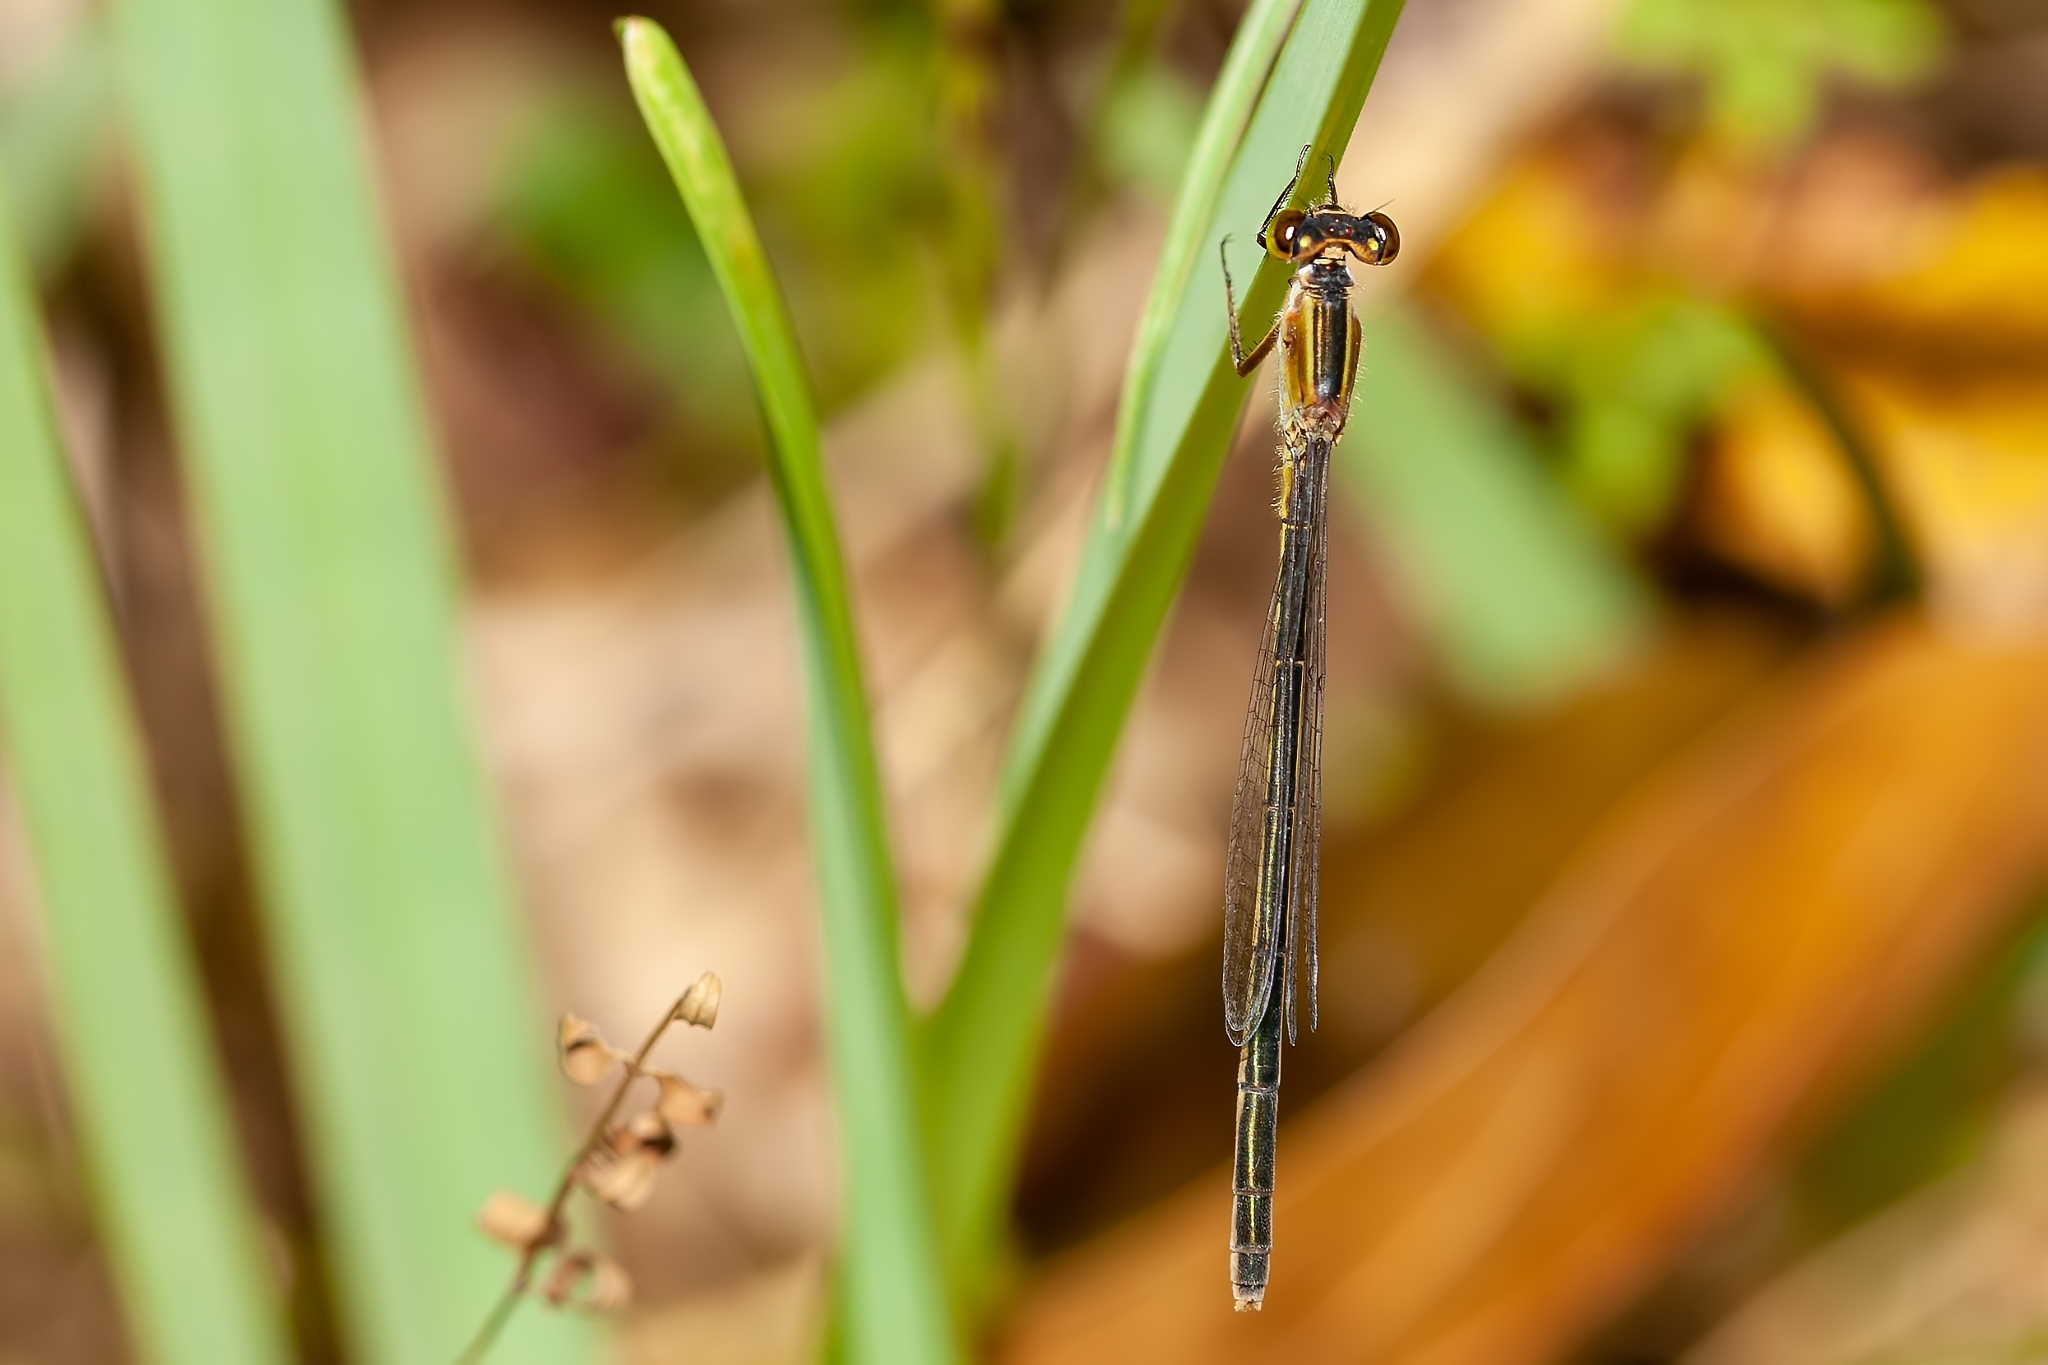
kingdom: Animalia
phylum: Arthropoda
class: Insecta
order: Odonata
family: Coenagrionidae
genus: Ischnura
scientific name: Ischnura ramburii
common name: Rambur's forktail
